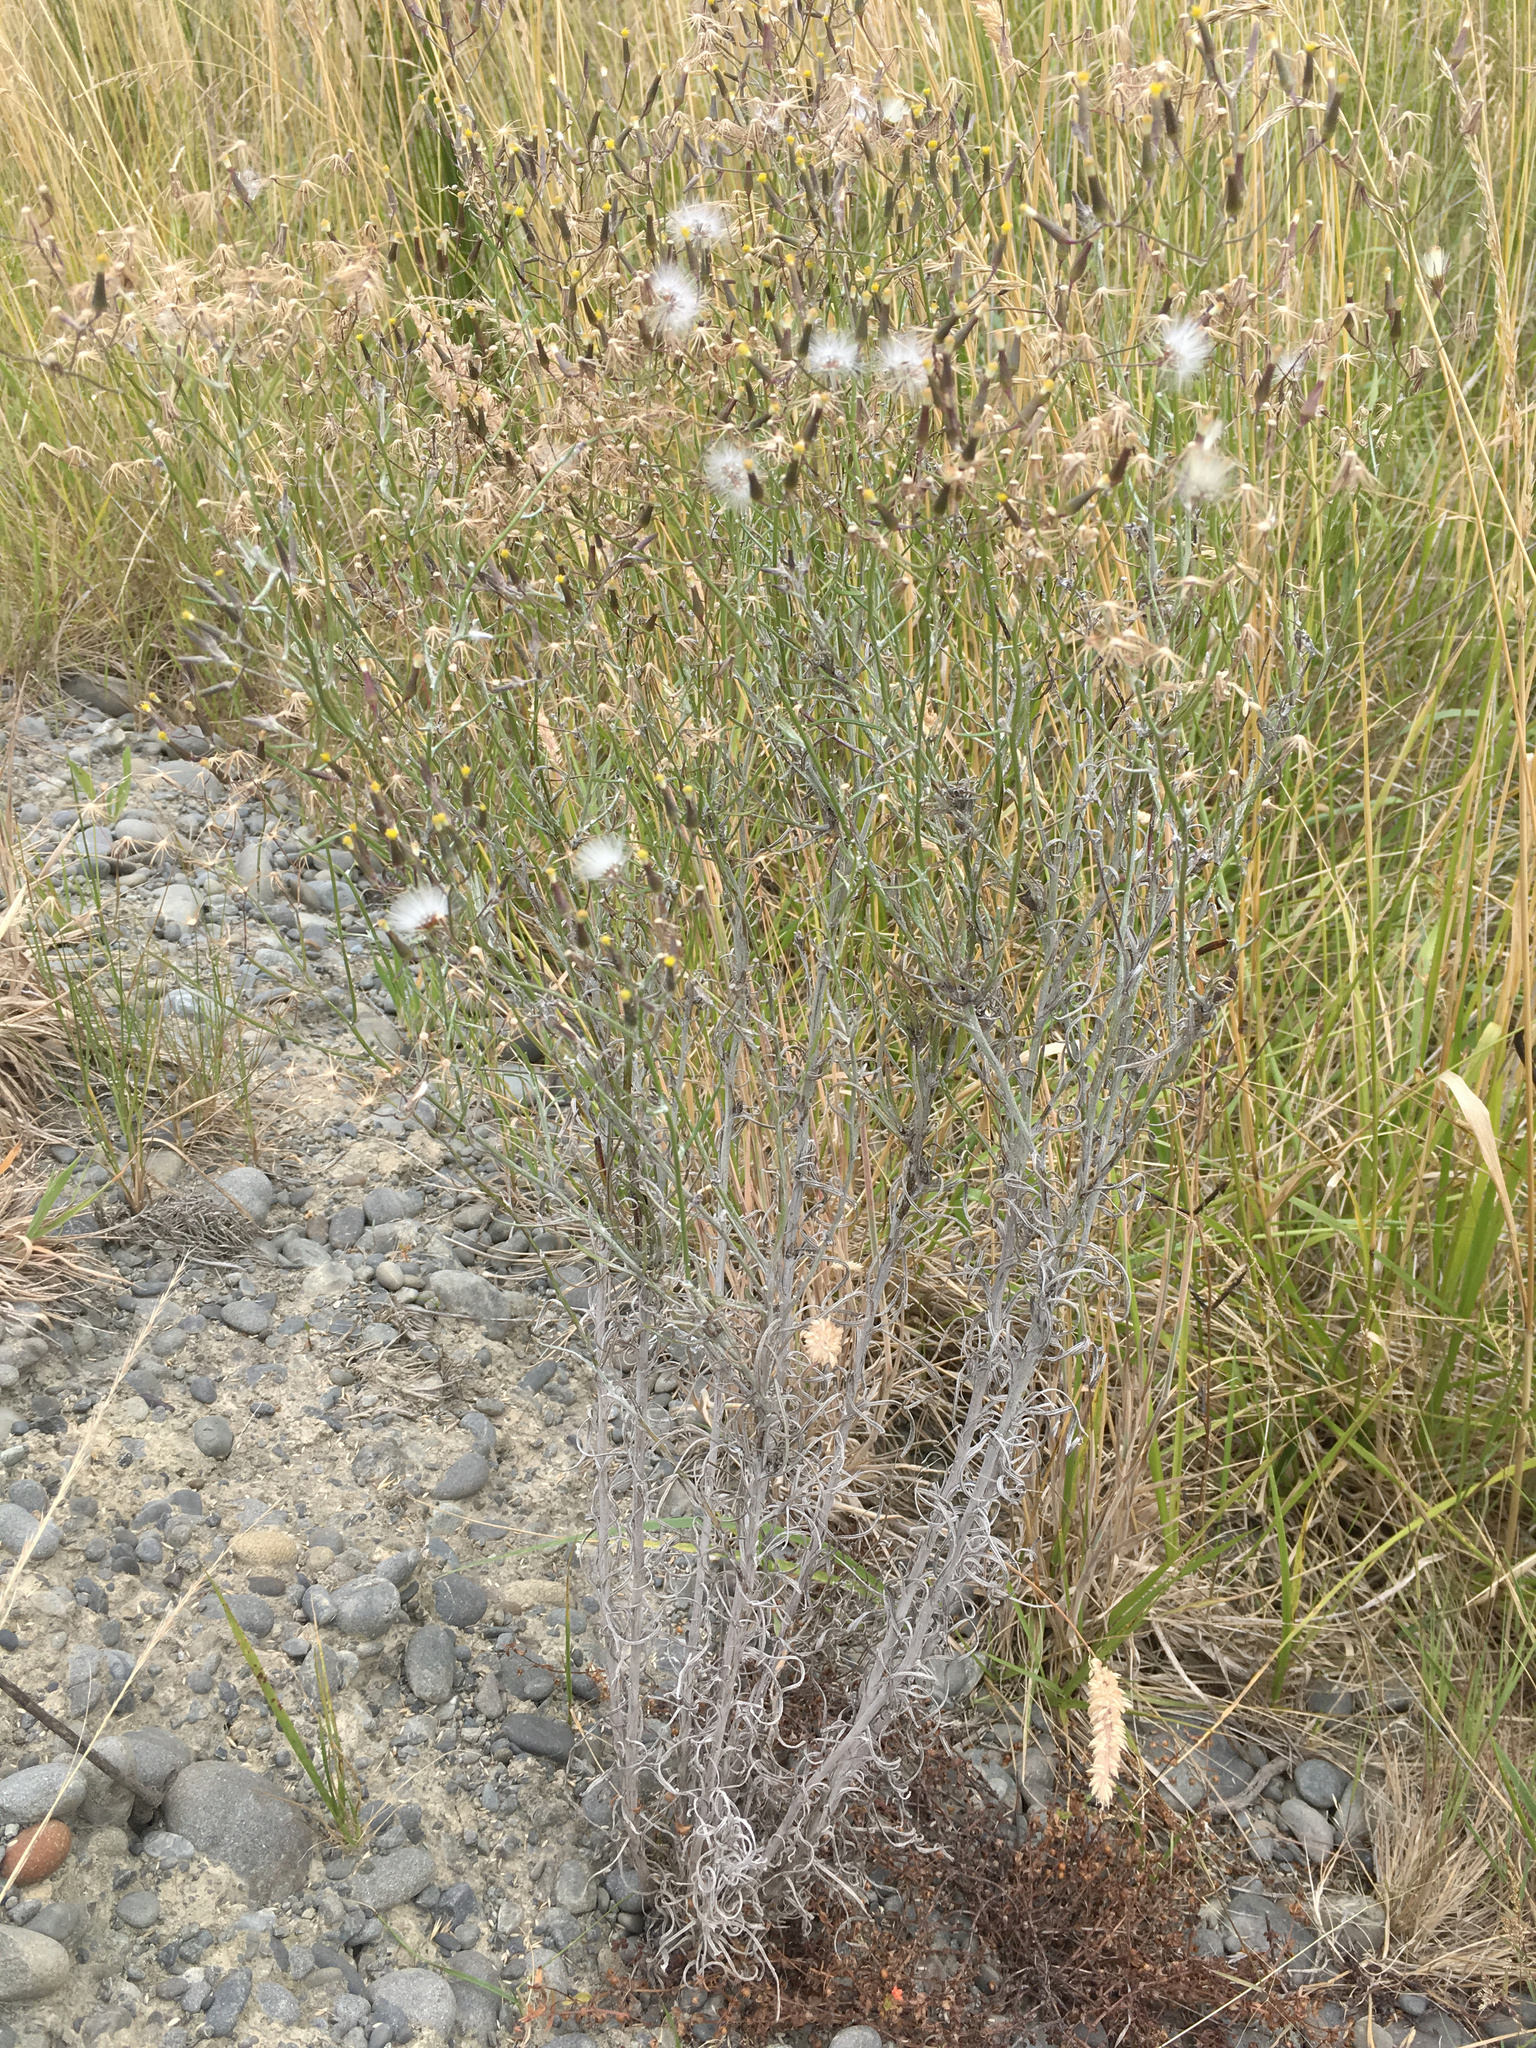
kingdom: Plantae
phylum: Tracheophyta
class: Magnoliopsida
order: Asterales
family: Asteraceae
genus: Senecio
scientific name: Senecio quadridentatus
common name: Cotton fireweed
